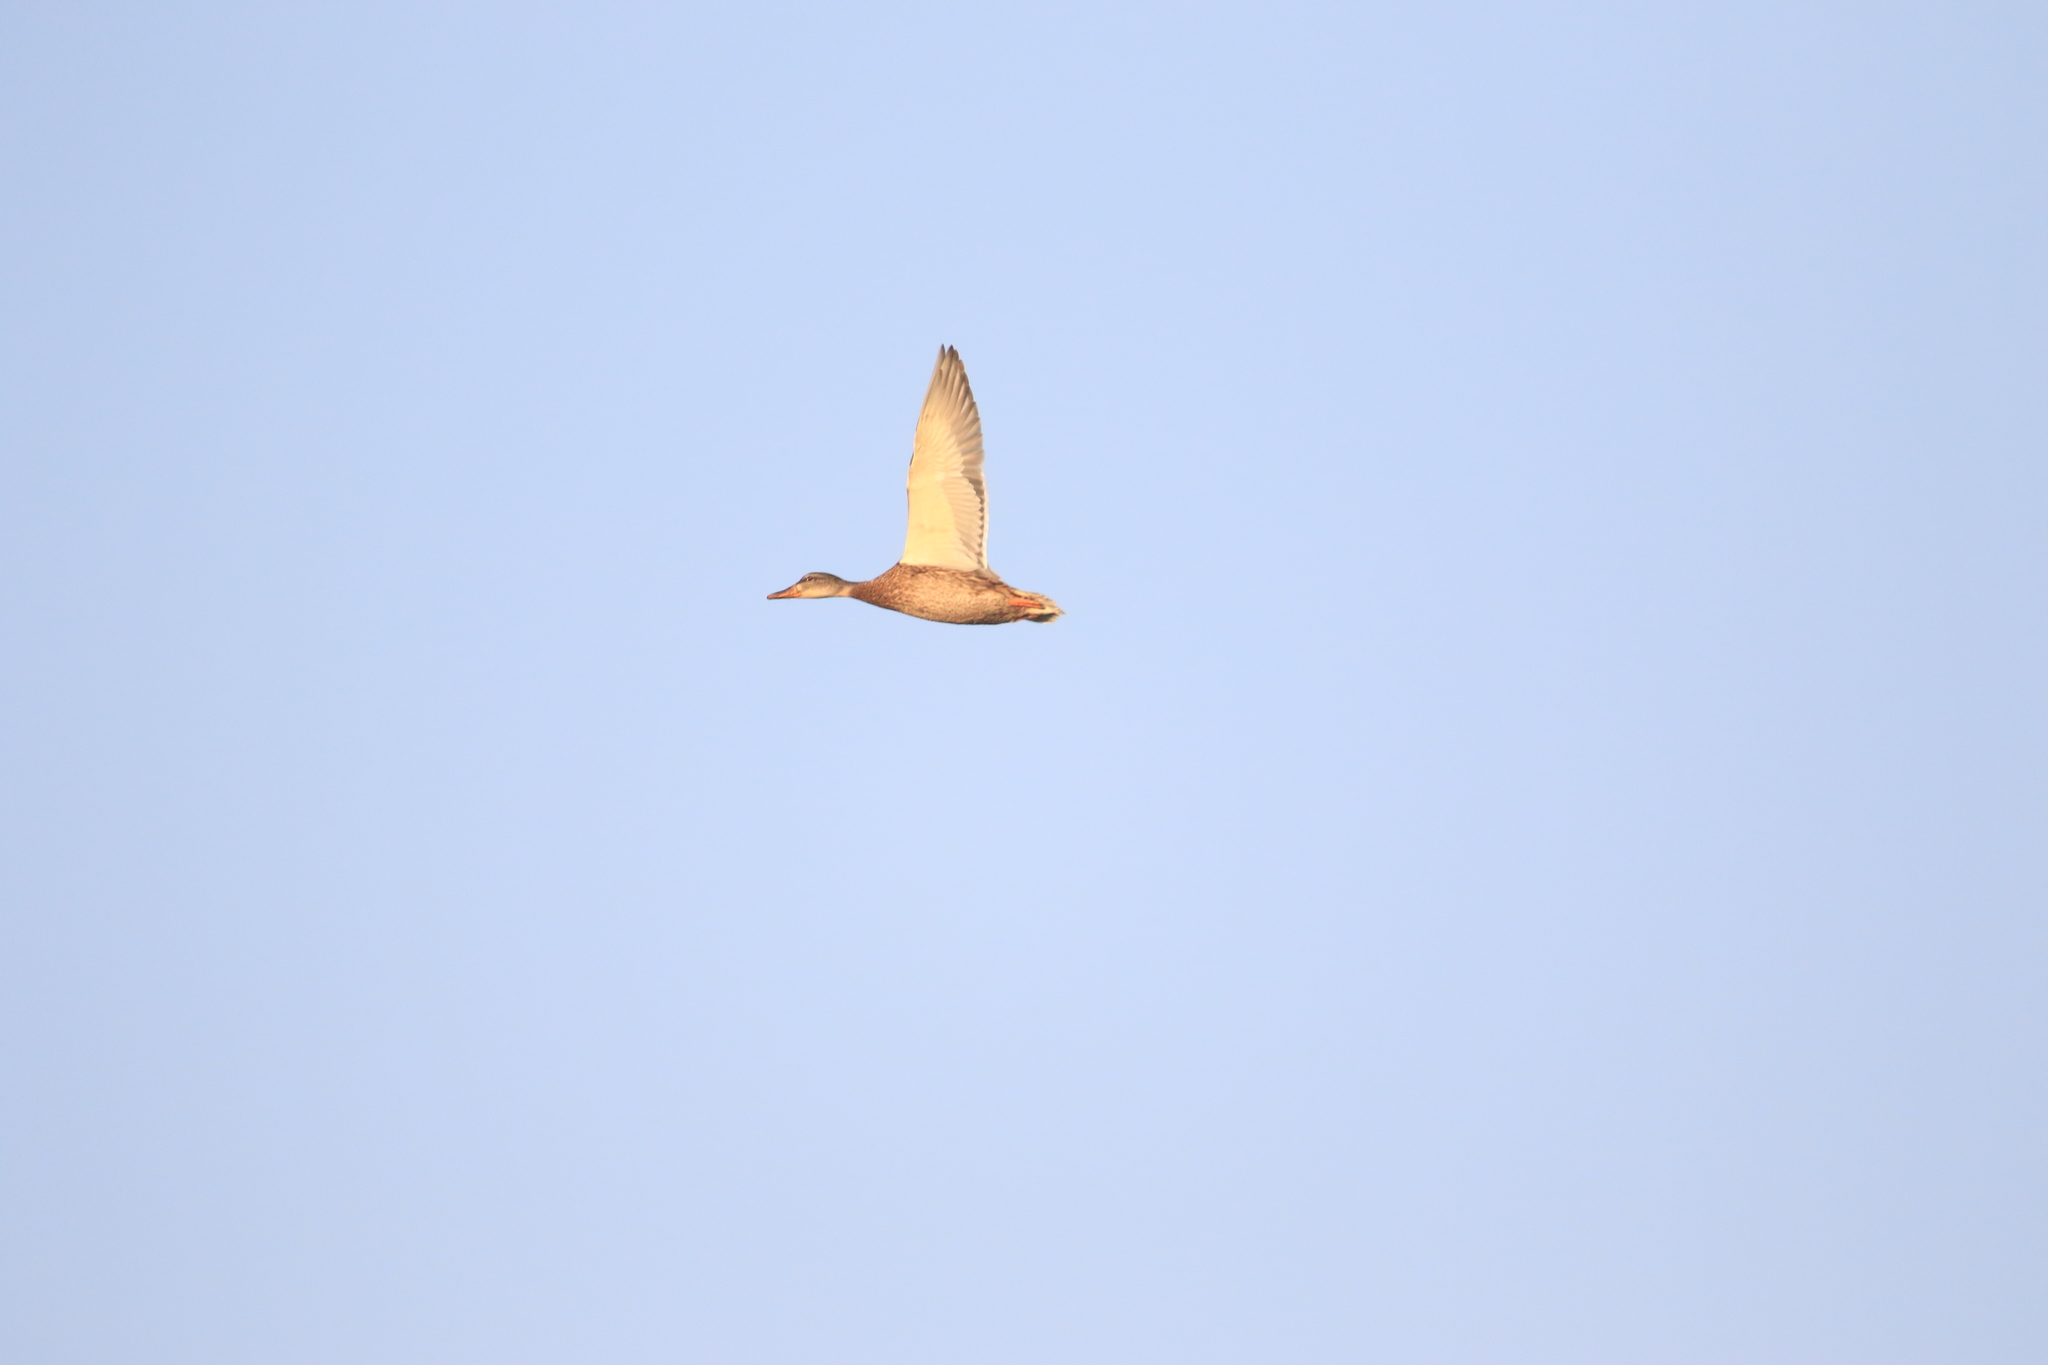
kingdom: Animalia
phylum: Chordata
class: Aves
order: Anseriformes
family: Anatidae
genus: Anas
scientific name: Anas platyrhynchos
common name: Mallard
